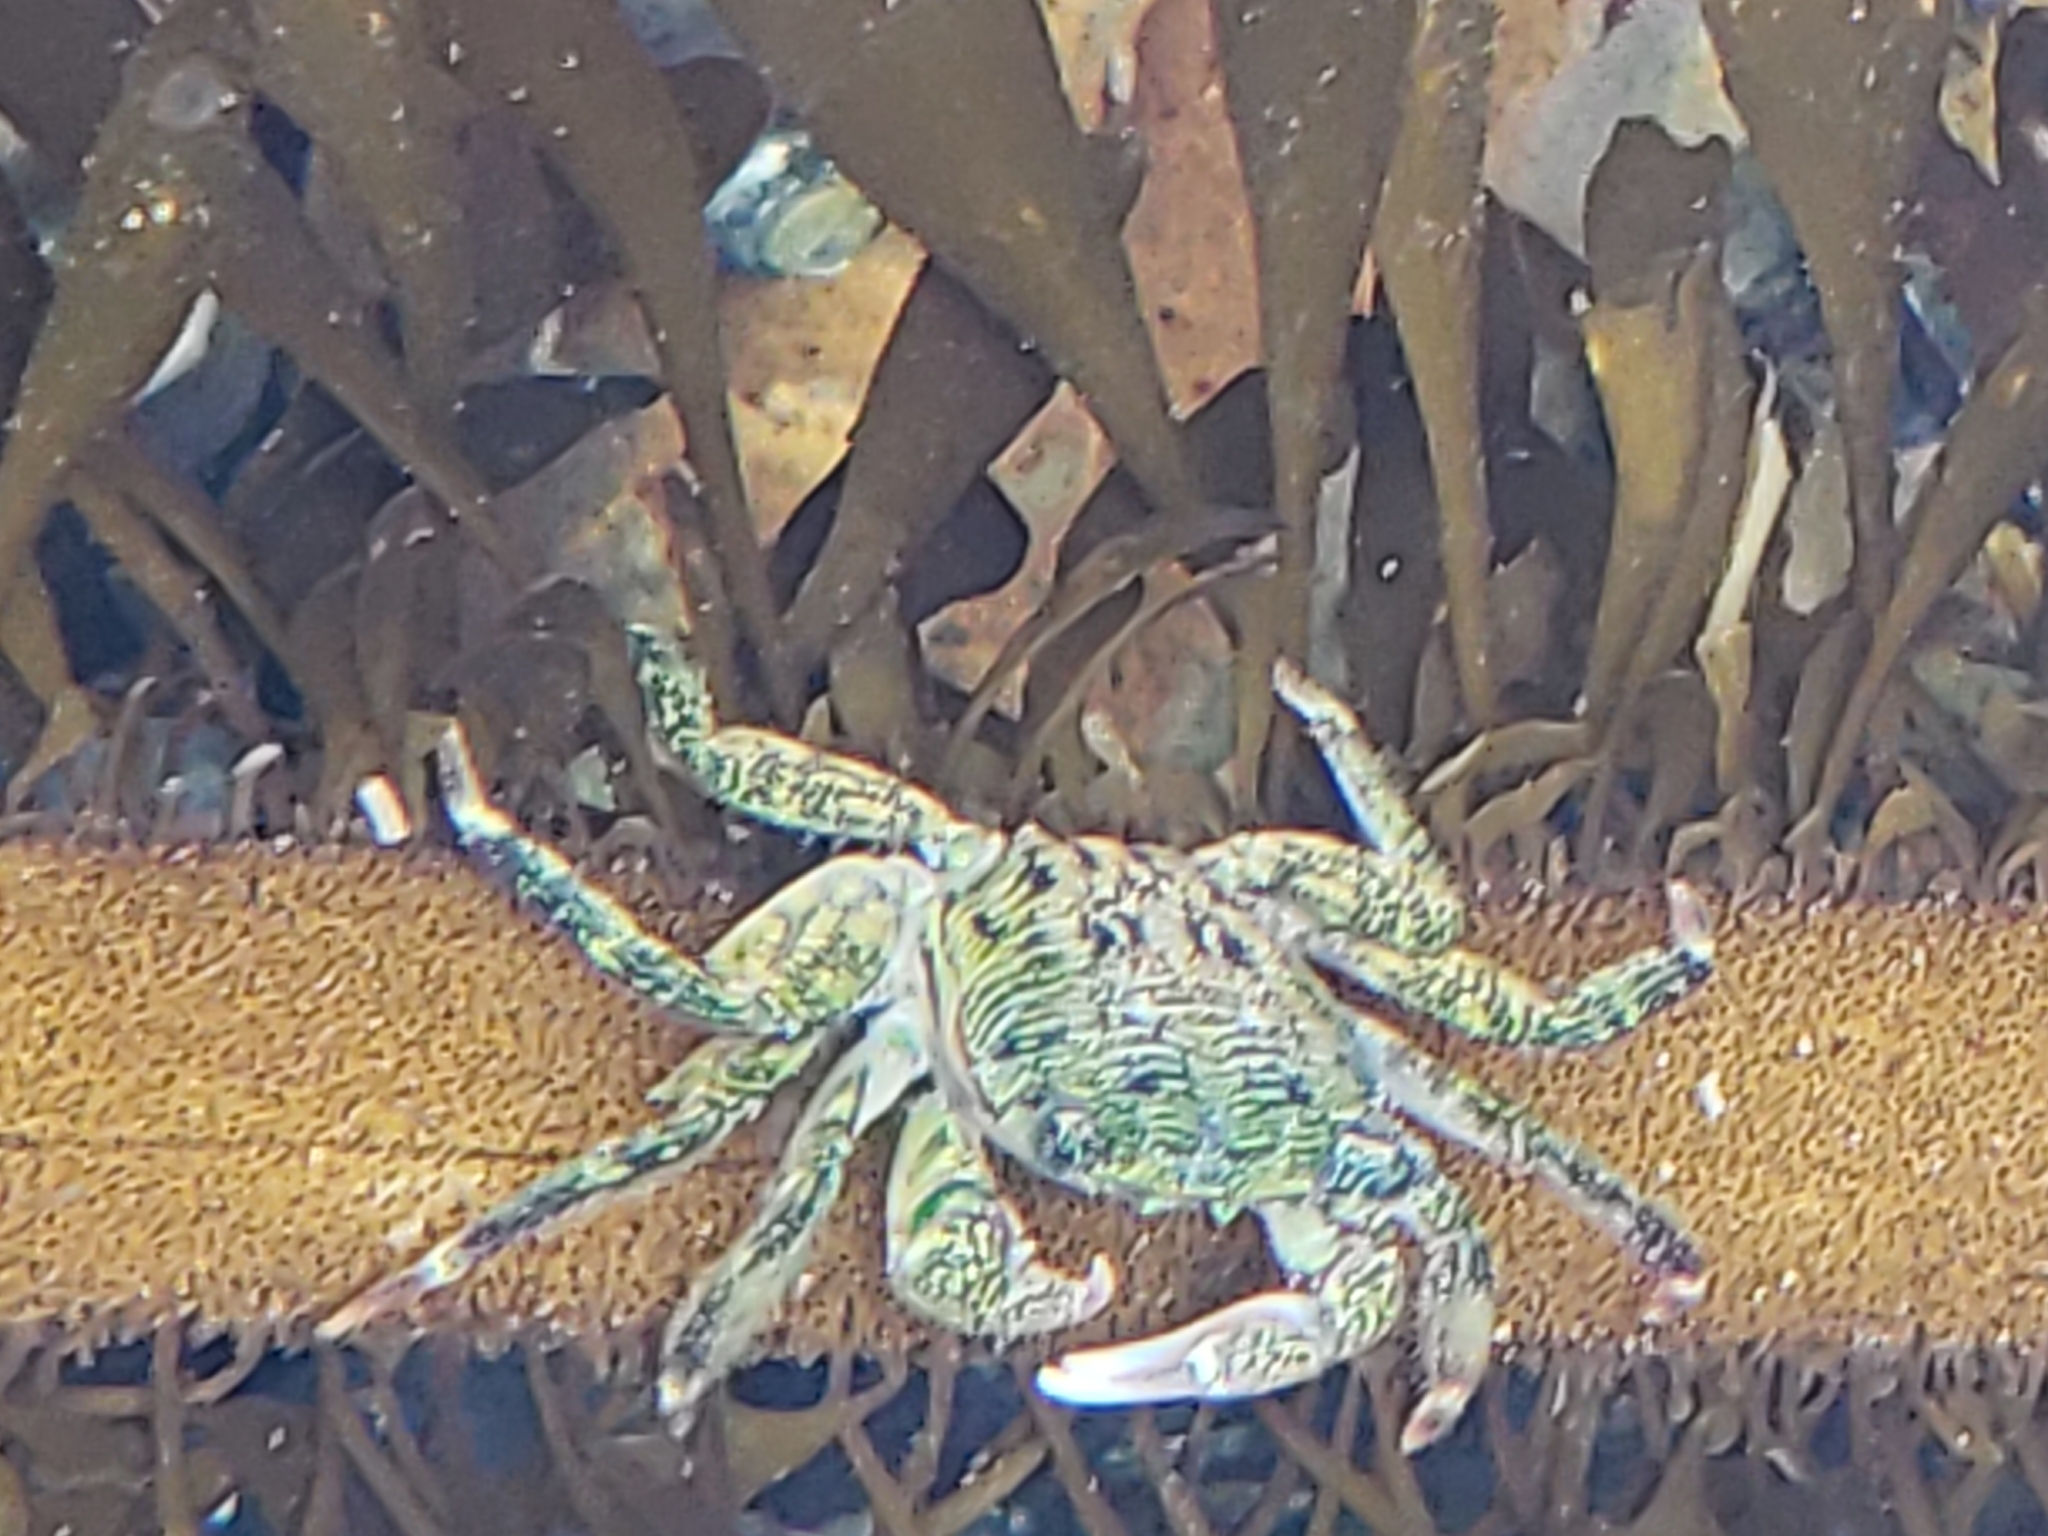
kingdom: Animalia
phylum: Arthropoda
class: Malacostraca
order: Decapoda
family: Grapsidae
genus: Pachygrapsus
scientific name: Pachygrapsus crassipes
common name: Striped shore crab
